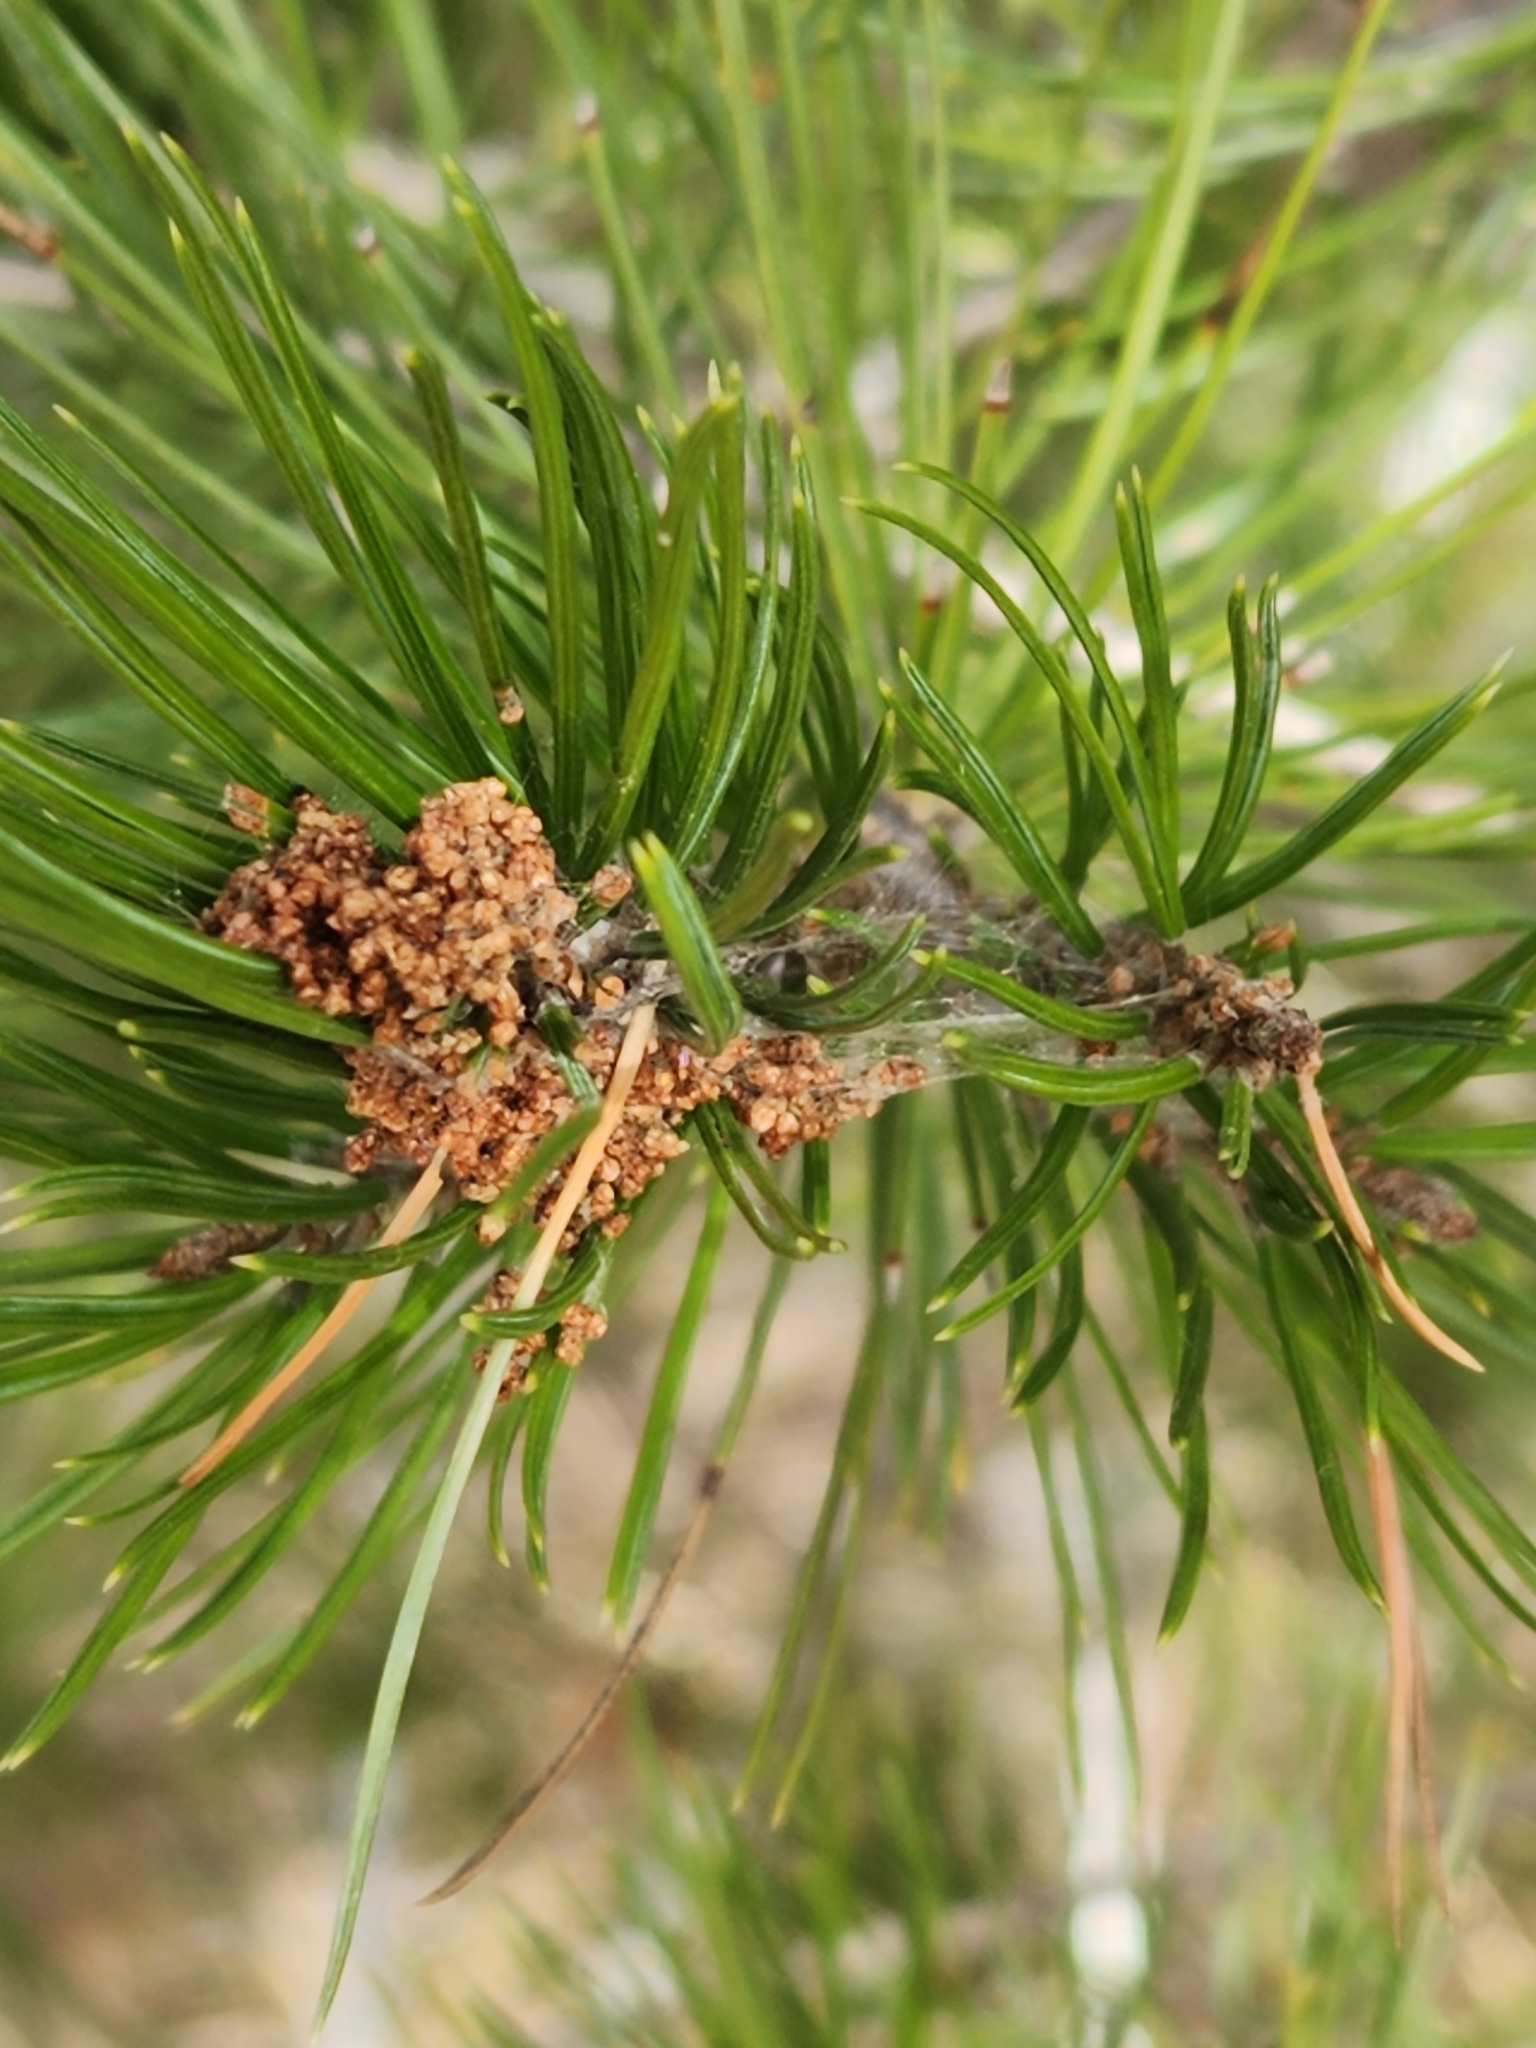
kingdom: Plantae
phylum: Tracheophyta
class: Pinopsida
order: Pinales
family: Pinaceae
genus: Pinus
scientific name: Pinus remota
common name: Nut pine
